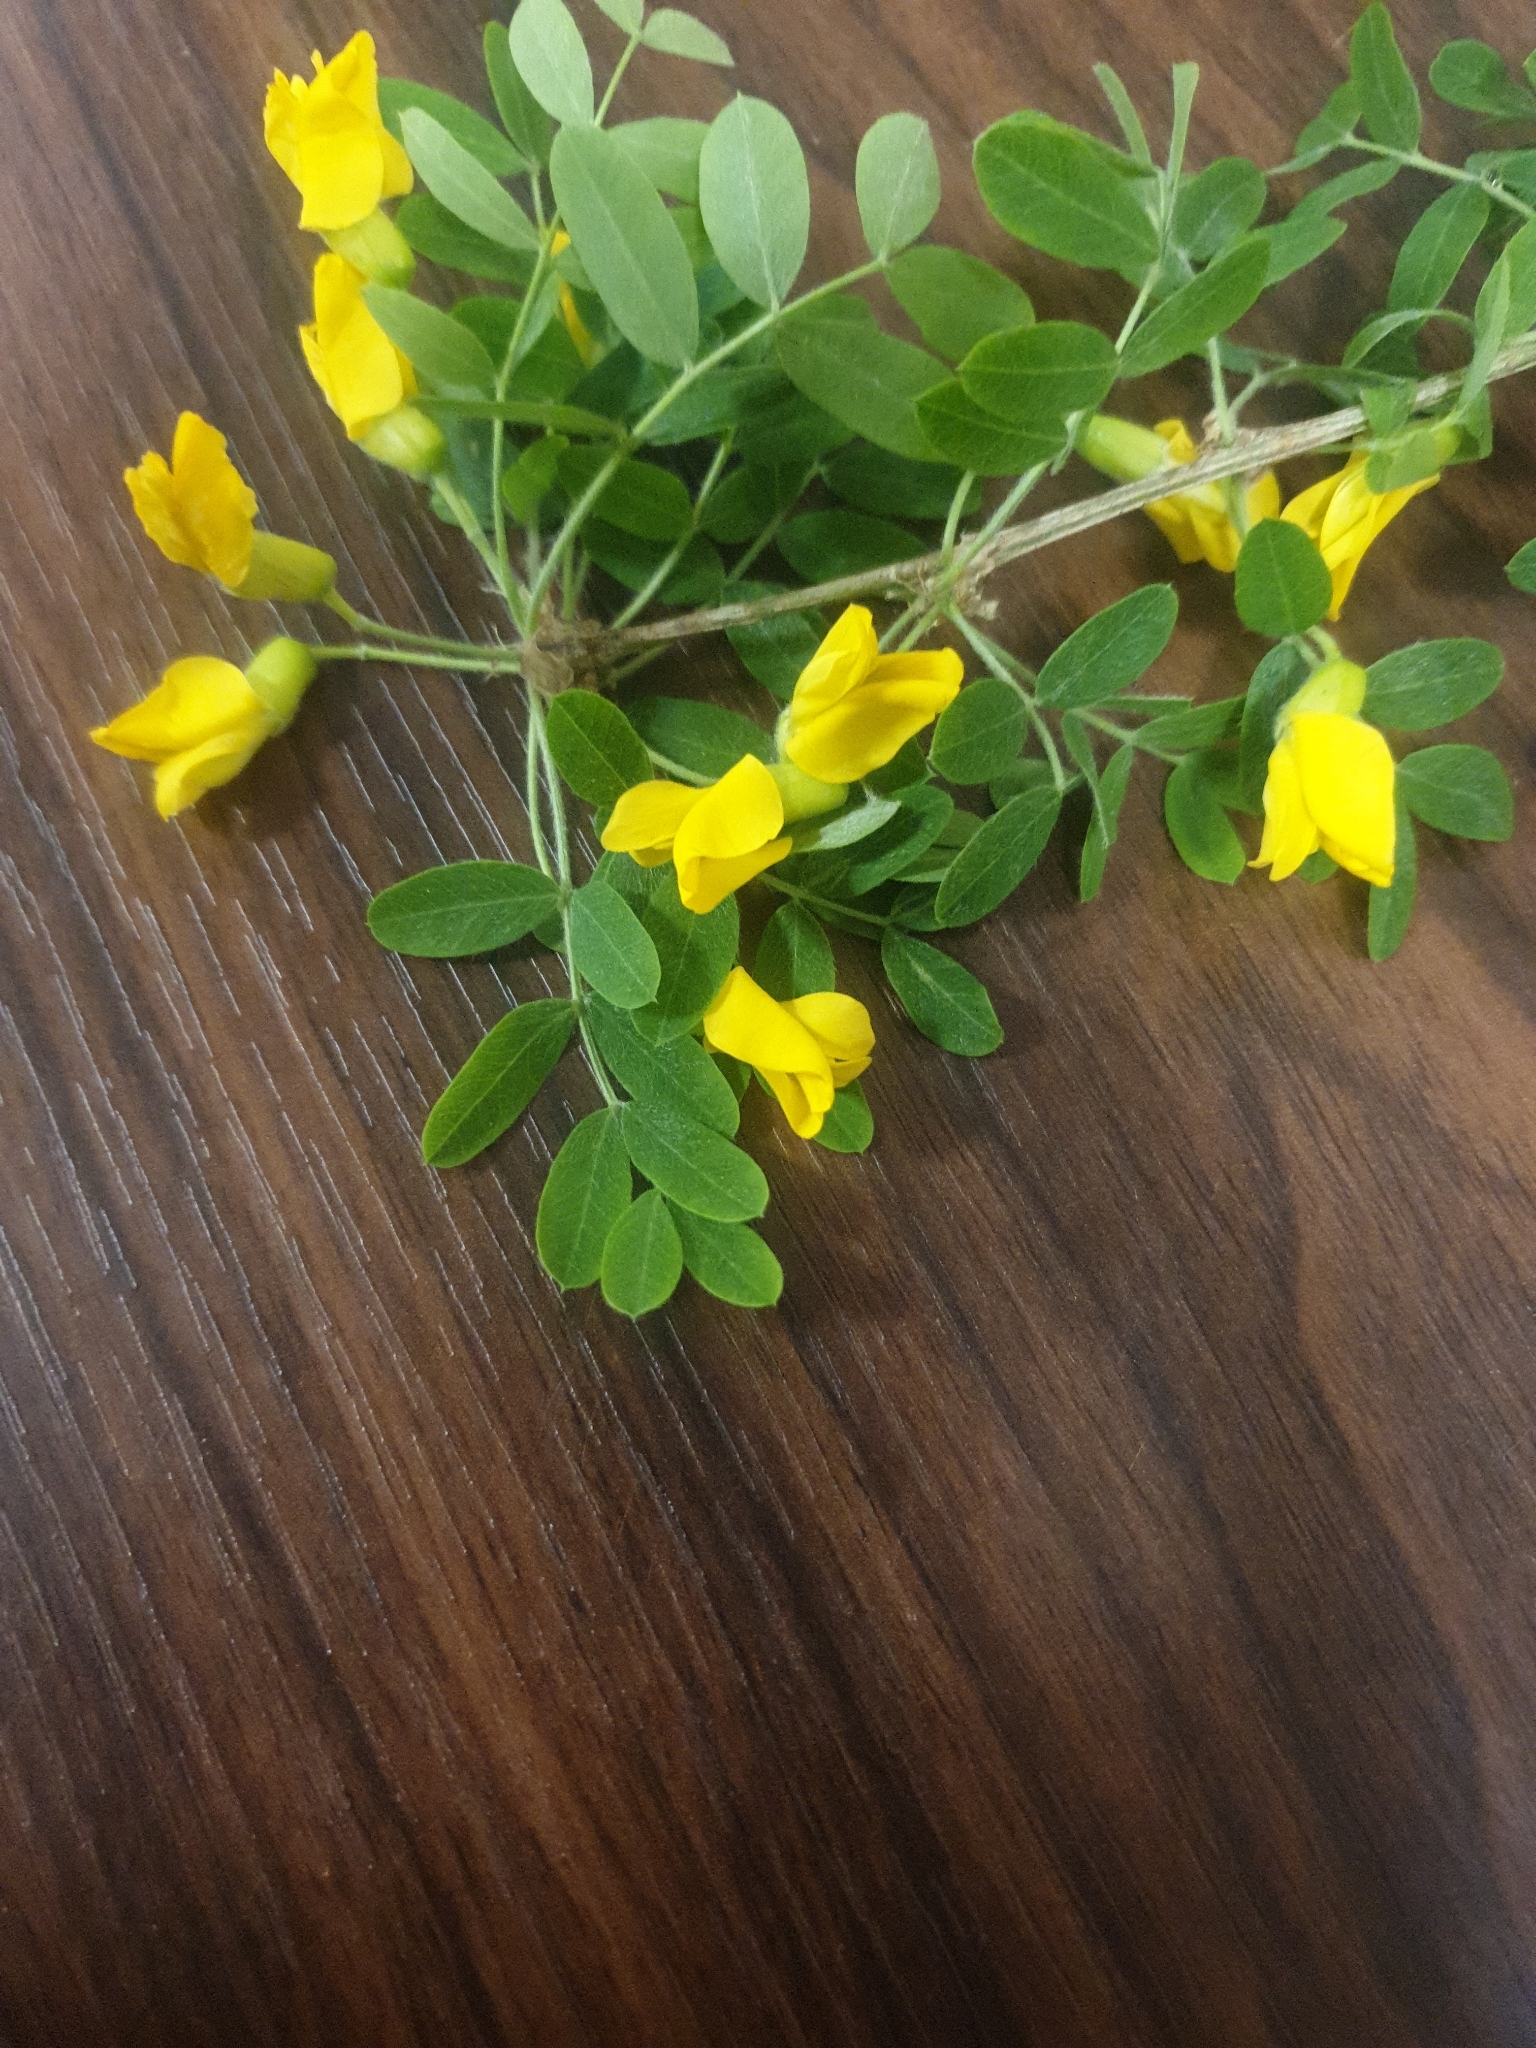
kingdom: Plantae
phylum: Tracheophyta
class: Magnoliopsida
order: Fabales
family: Fabaceae
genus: Caragana
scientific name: Caragana arborescens
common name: Siberian peashrub
